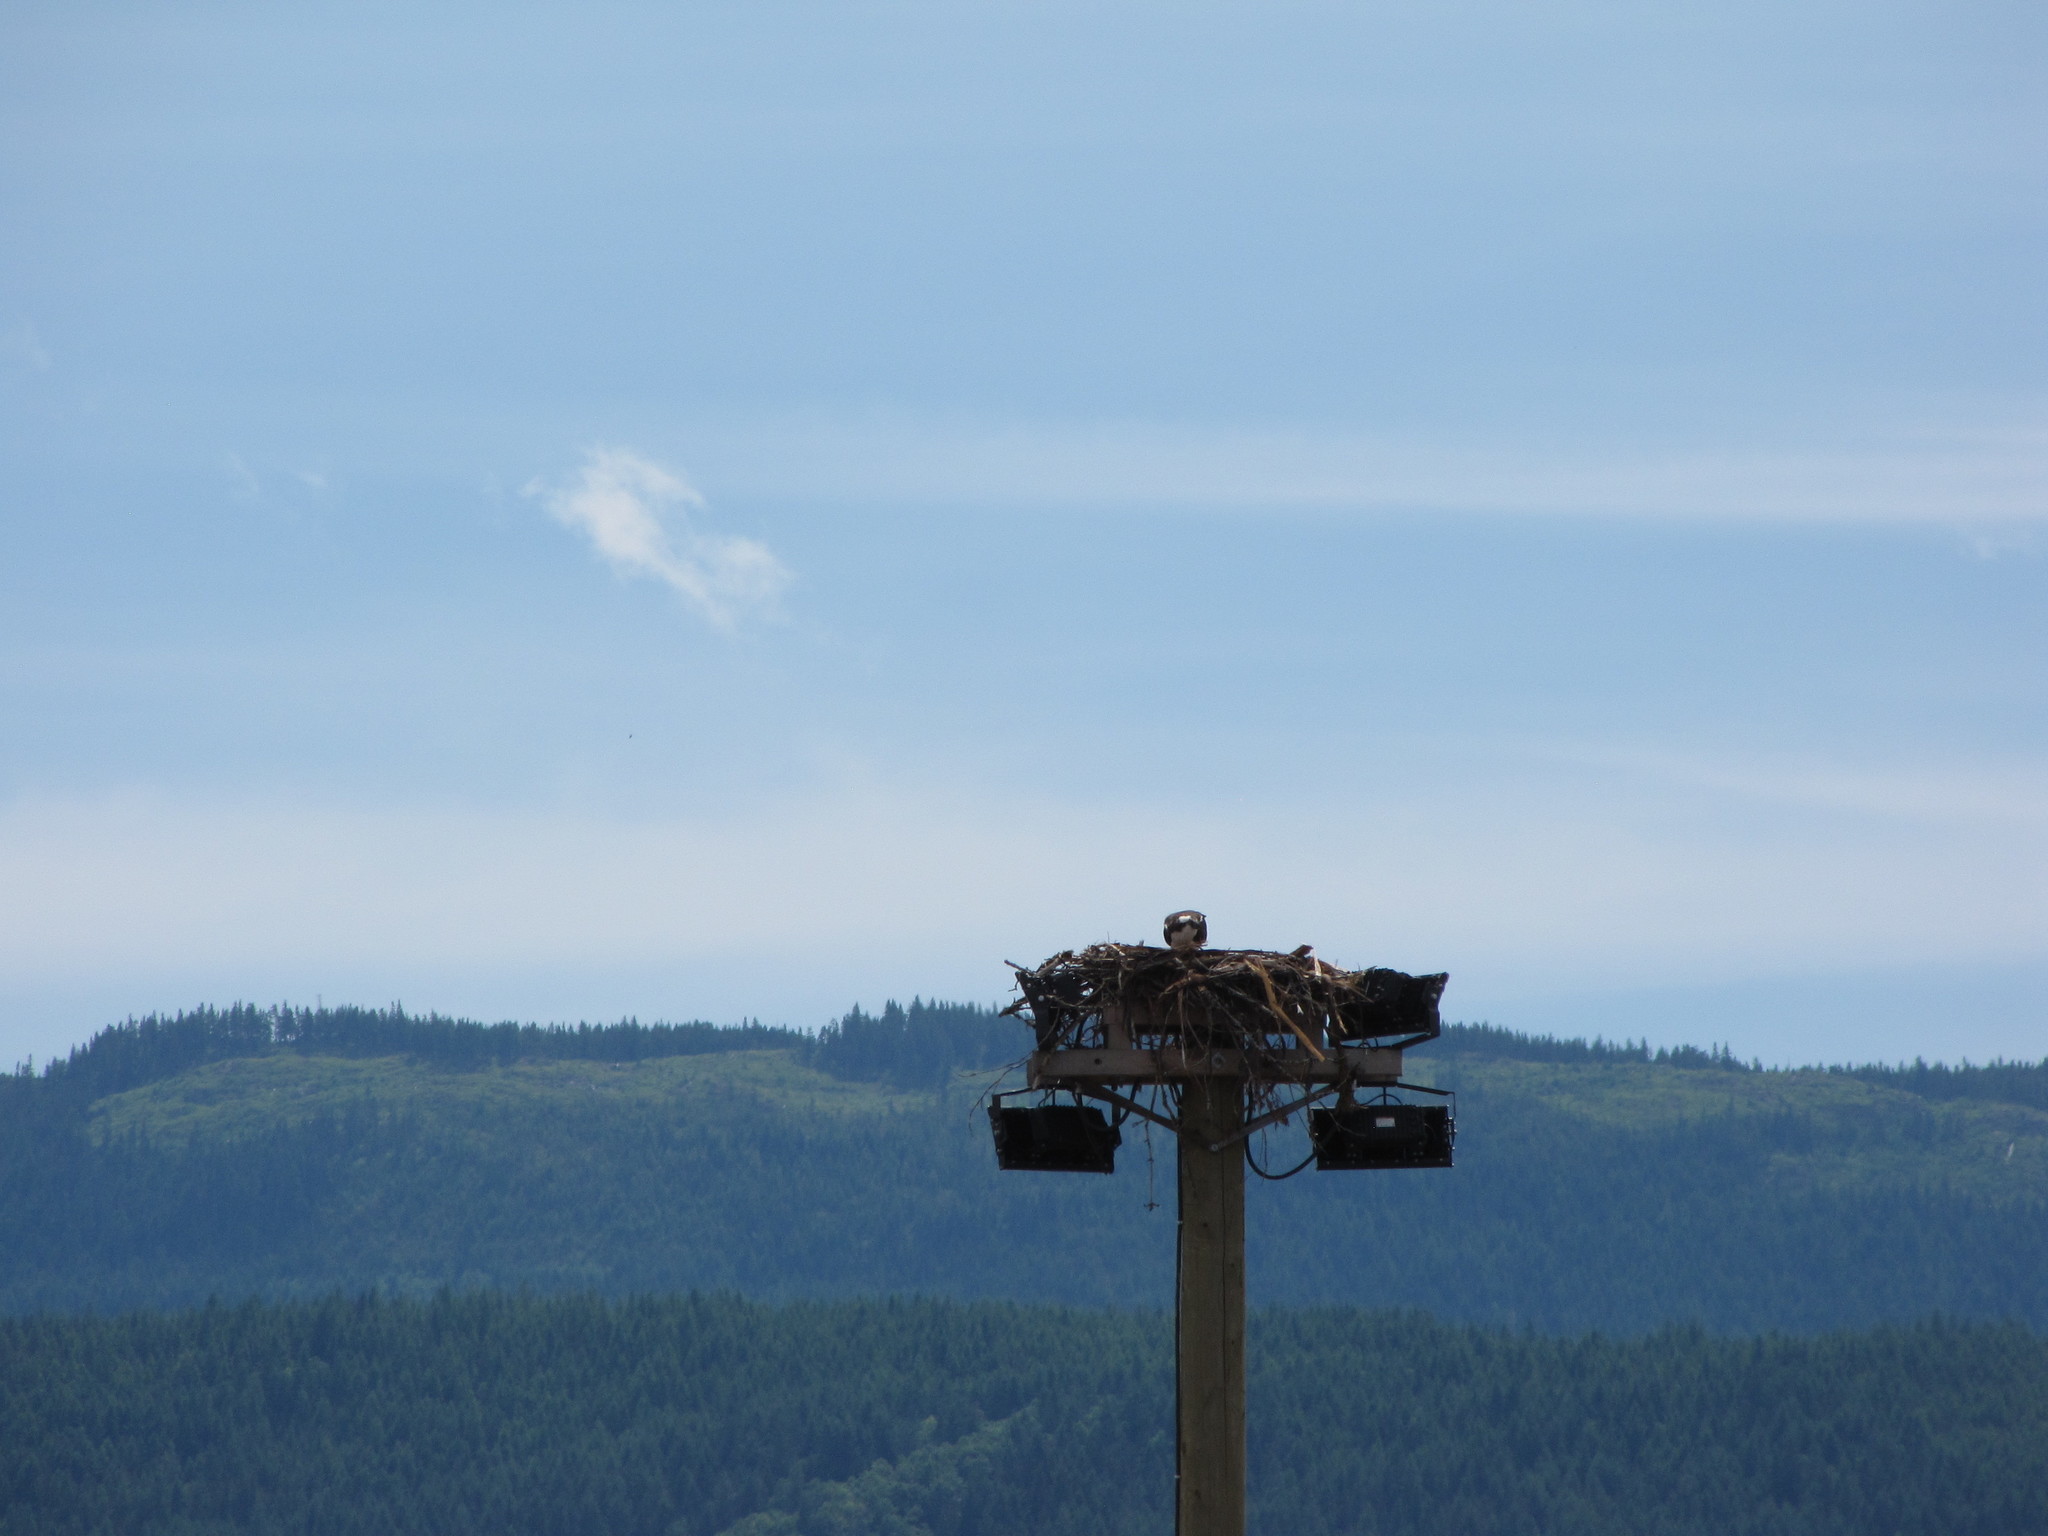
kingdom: Animalia
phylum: Chordata
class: Aves
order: Accipitriformes
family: Pandionidae
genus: Pandion
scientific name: Pandion haliaetus
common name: Osprey
